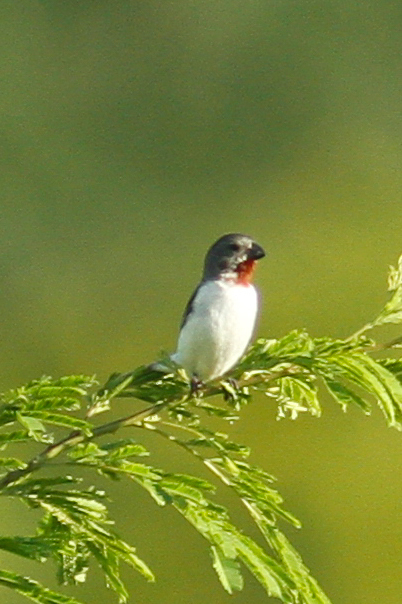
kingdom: Animalia
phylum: Chordata
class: Aves
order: Passeriformes
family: Thraupidae
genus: Sporophila
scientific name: Sporophila telasco
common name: Chestnut-throated seedeater
